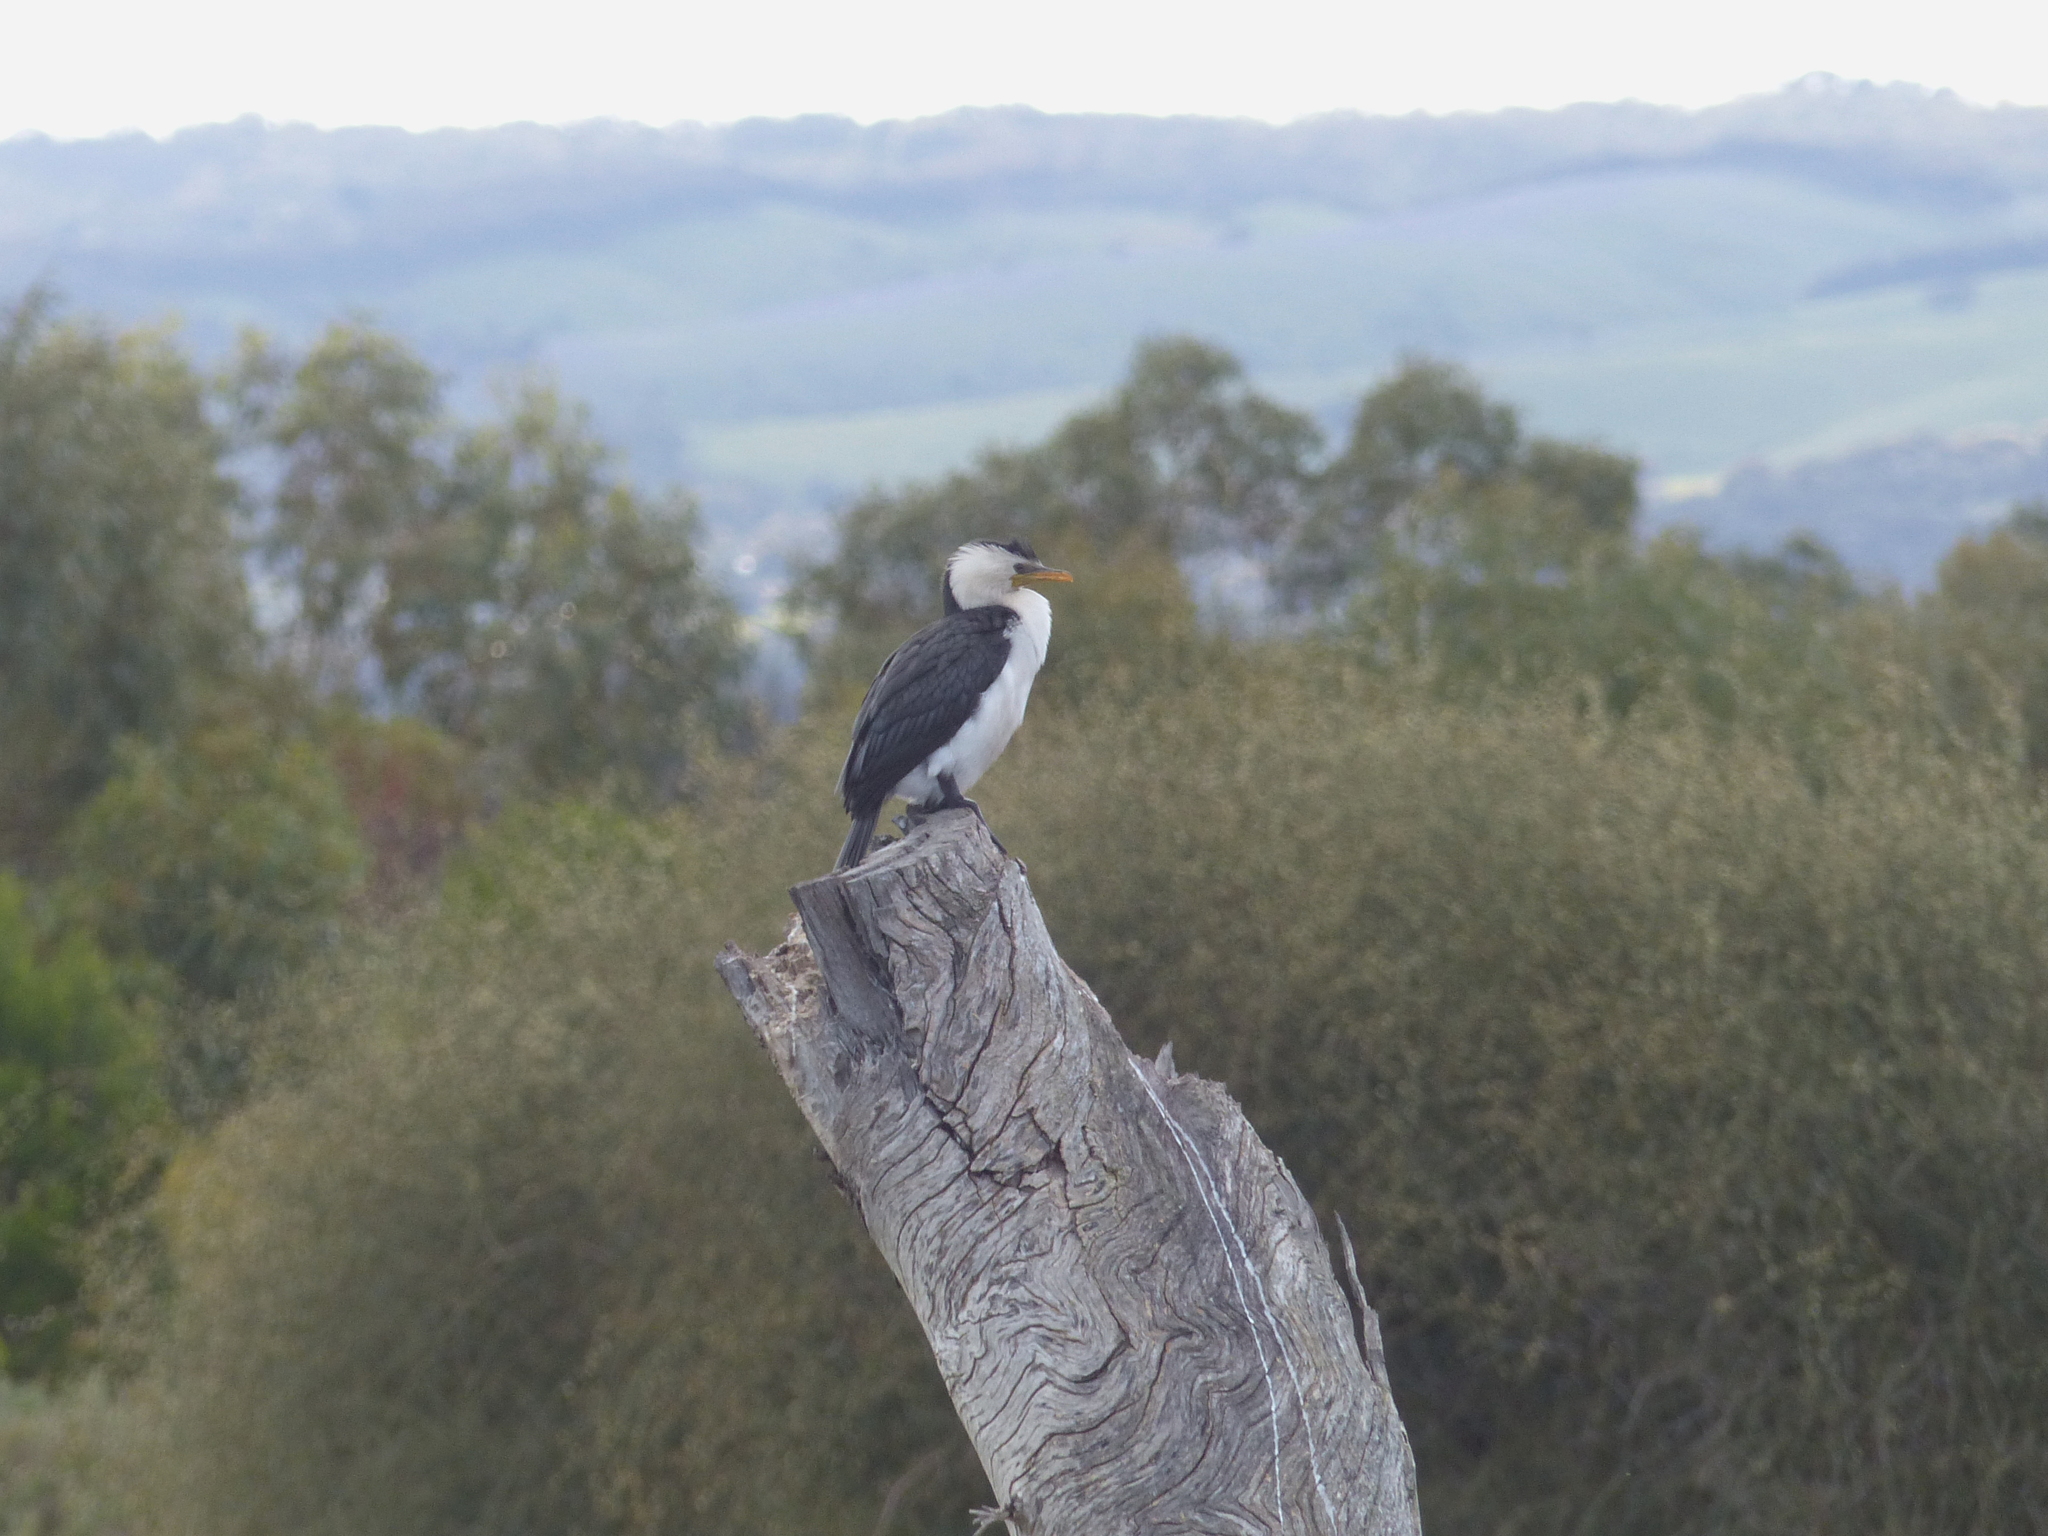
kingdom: Animalia
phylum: Chordata
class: Aves
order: Suliformes
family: Phalacrocoracidae
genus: Microcarbo
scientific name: Microcarbo melanoleucos
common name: Little pied cormorant
